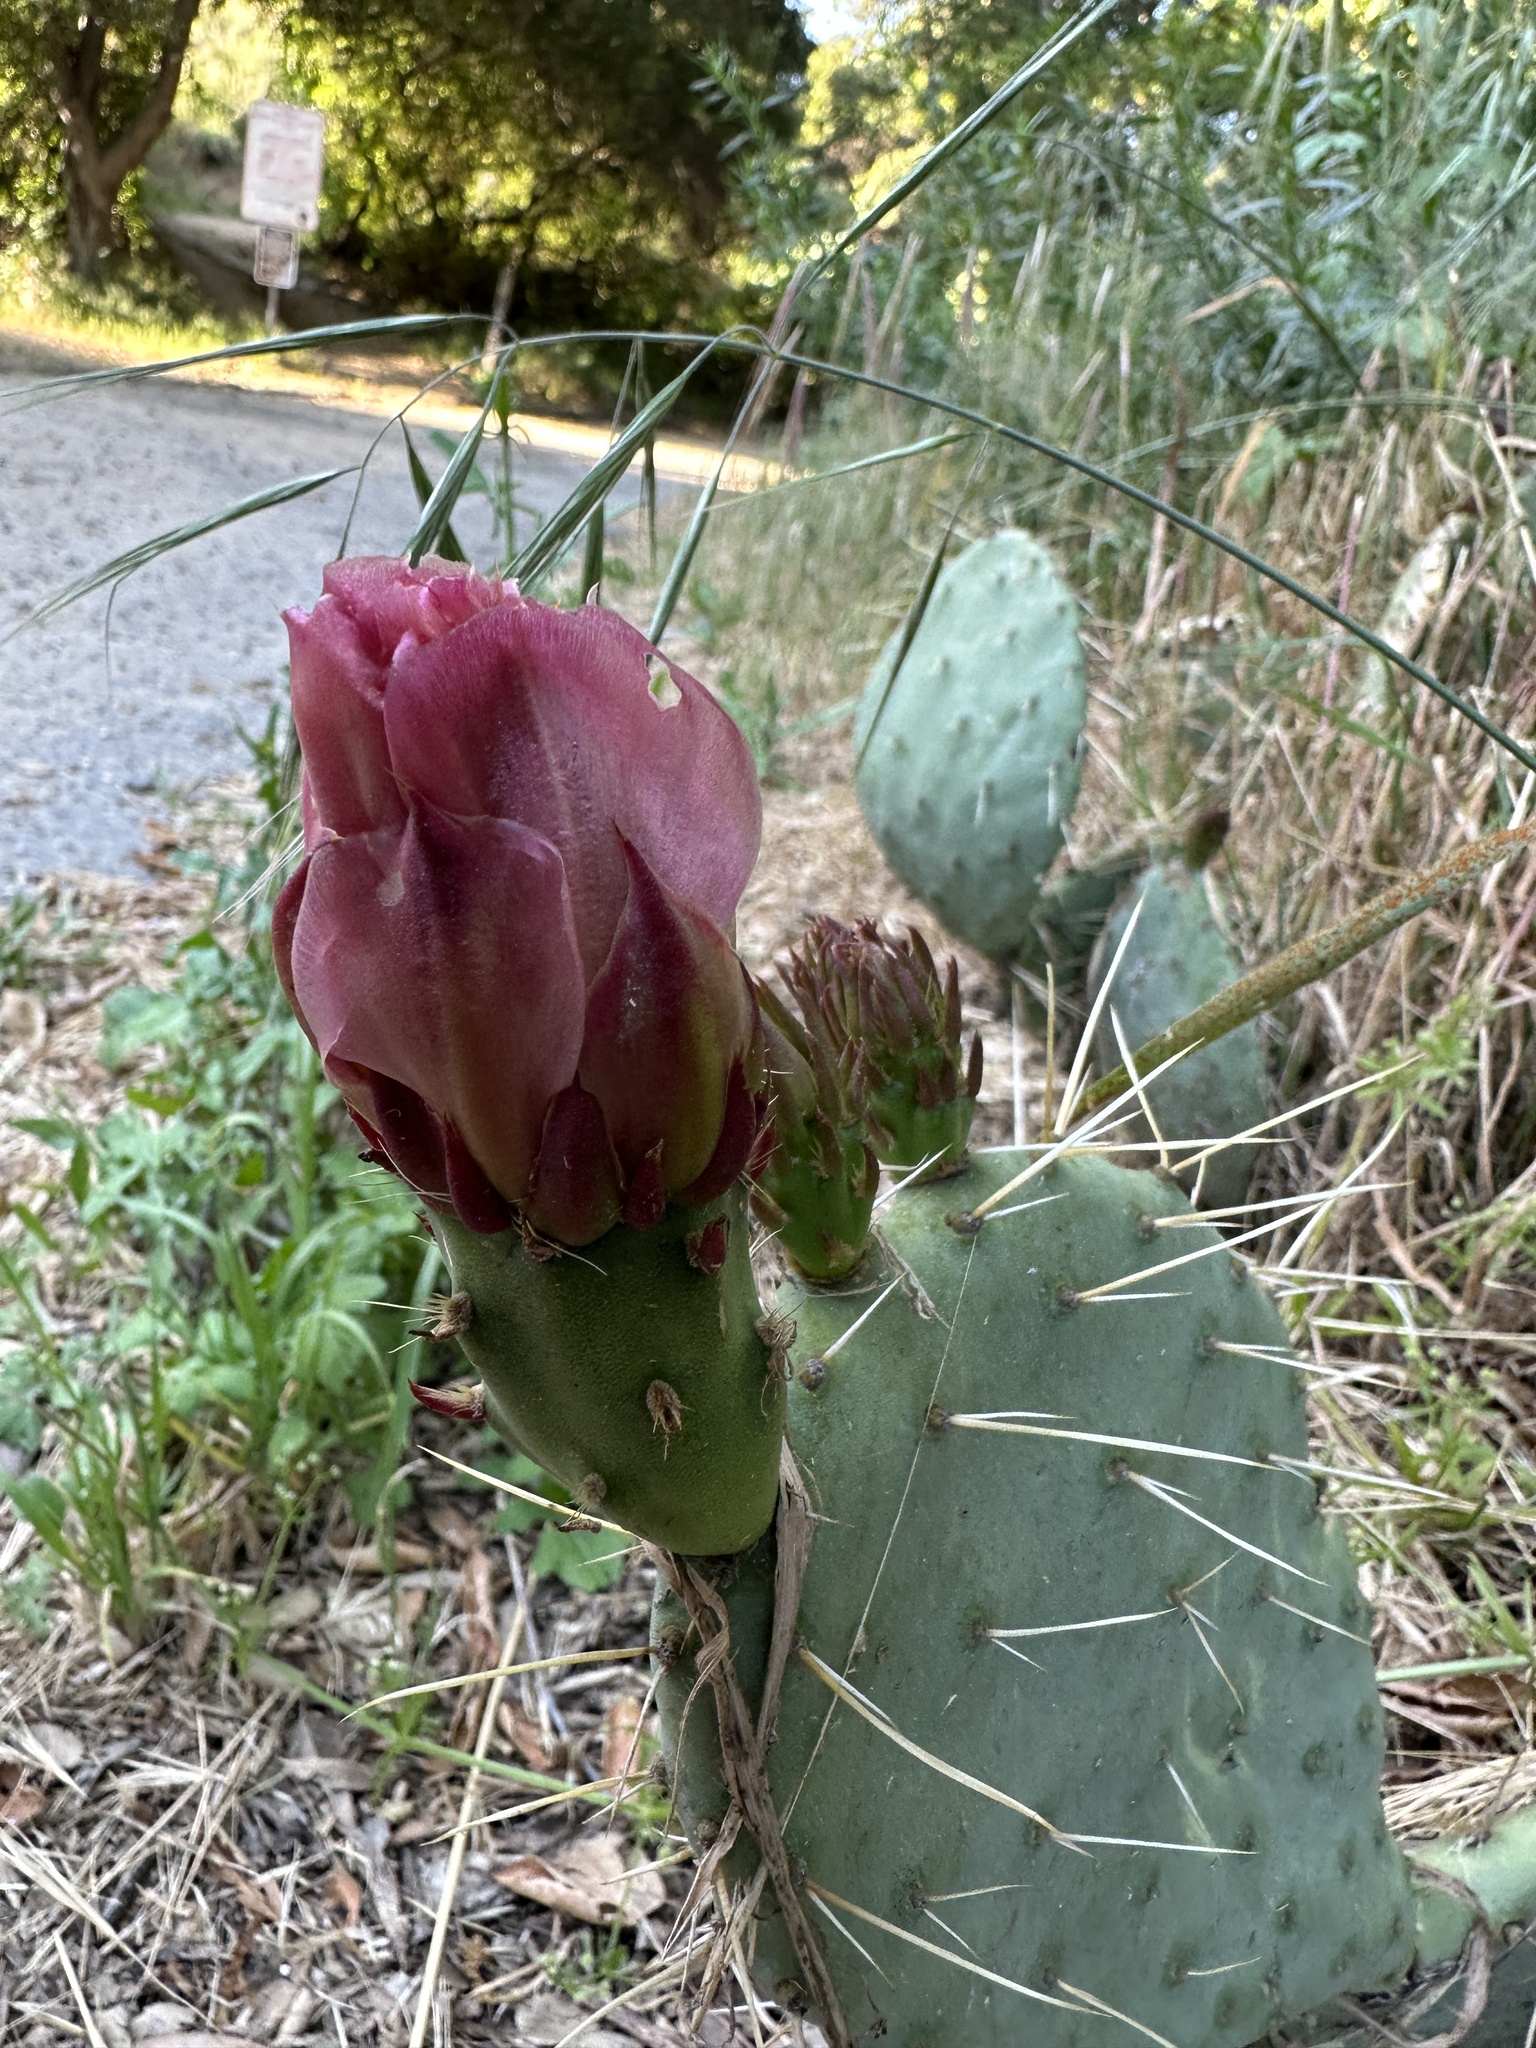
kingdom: Plantae
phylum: Tracheophyta
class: Magnoliopsida
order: Caryophyllales
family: Cactaceae
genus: Opuntia
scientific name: Opuntia littoralis
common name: Coastal prickly-pear
